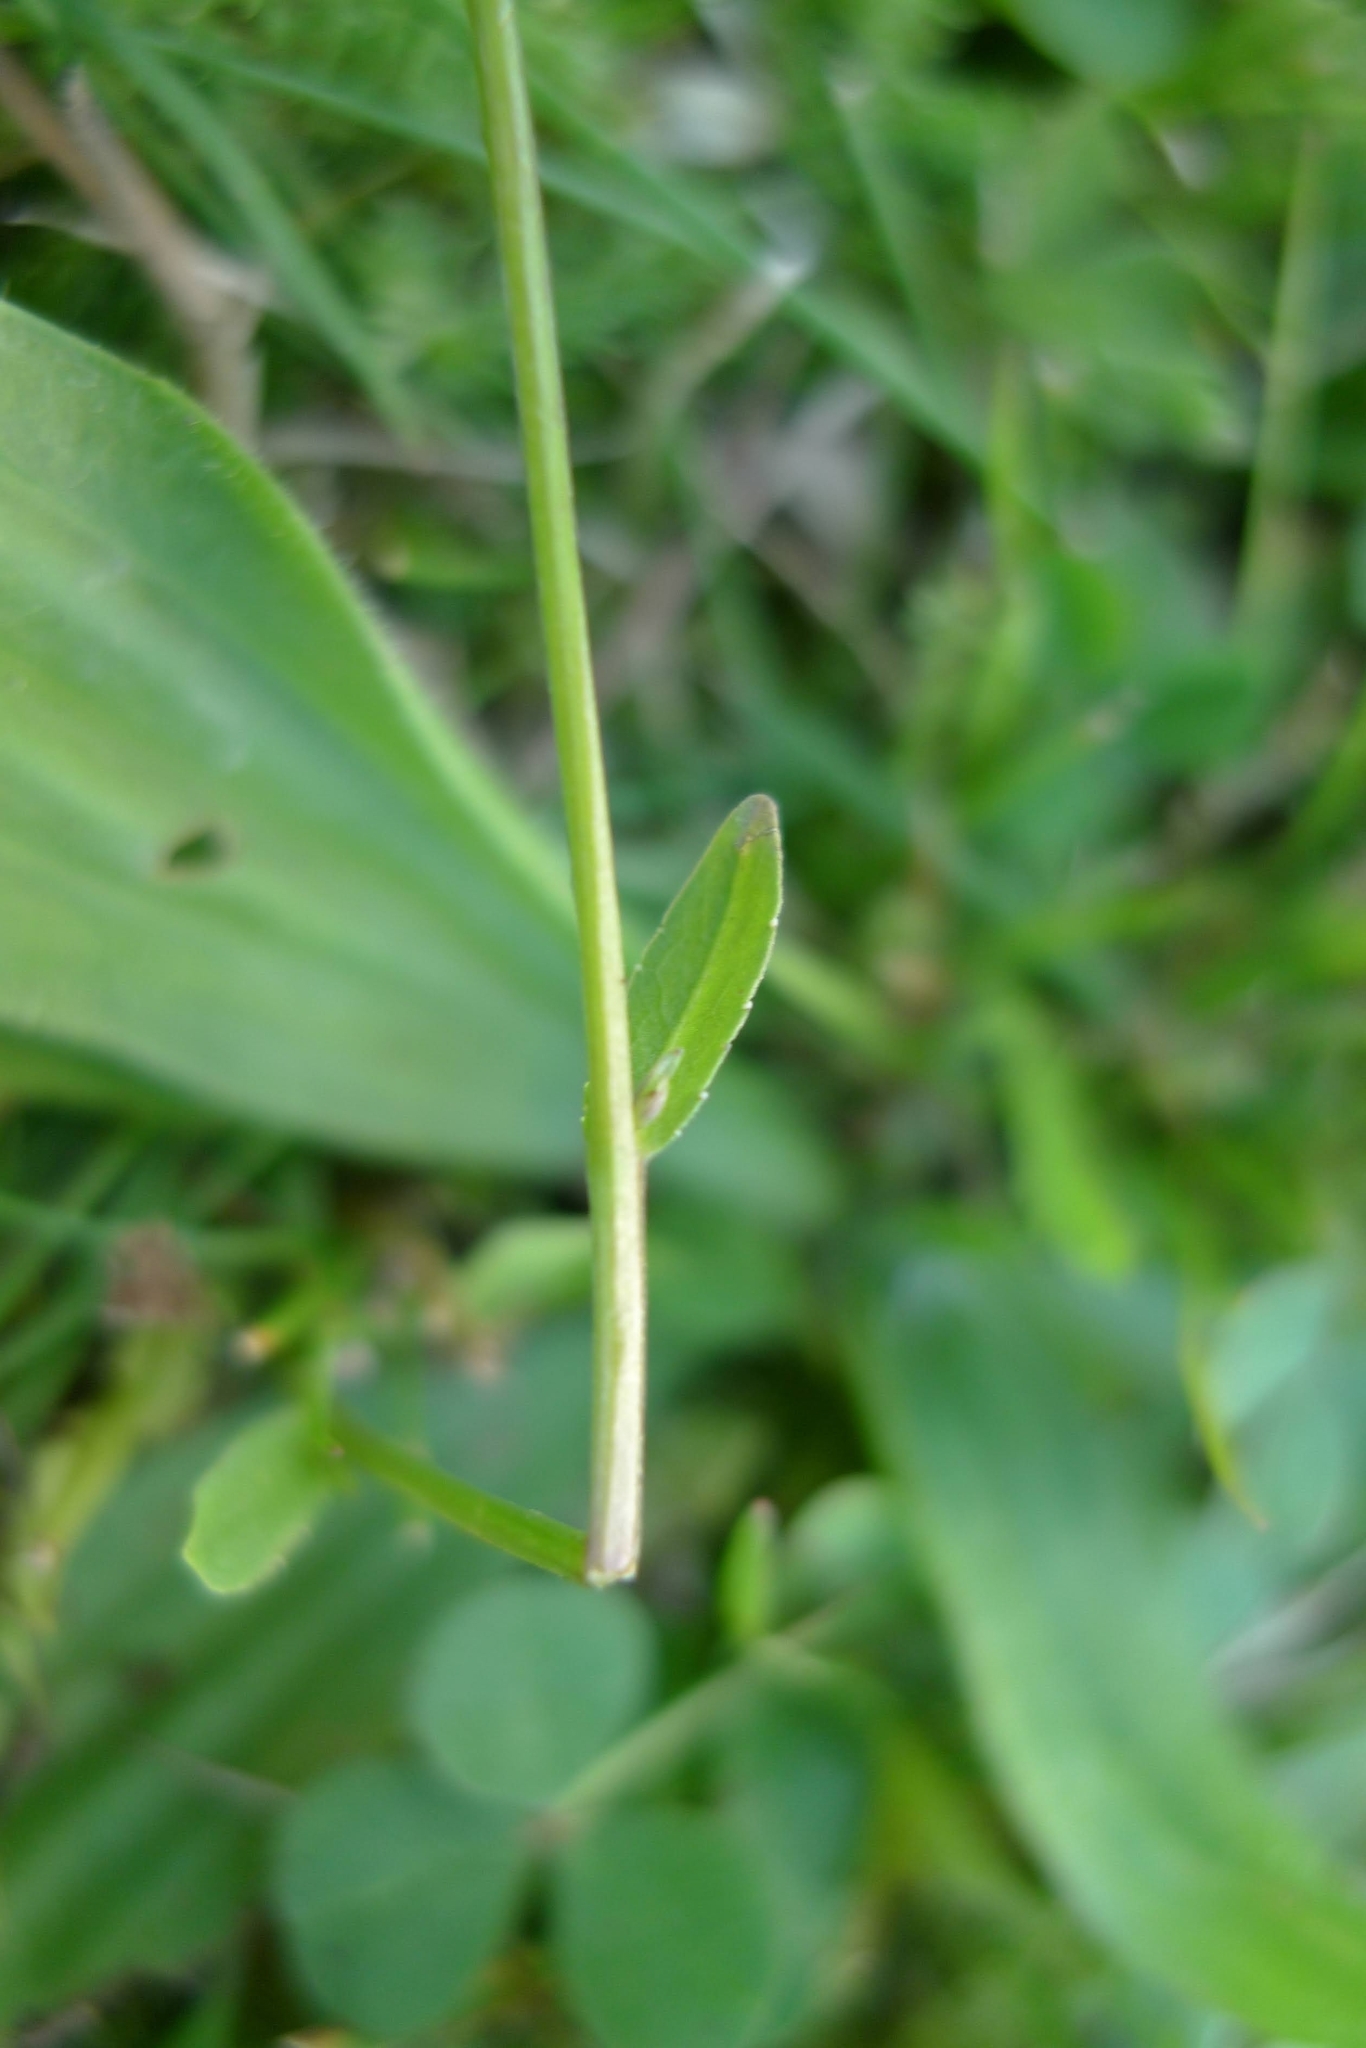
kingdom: Plantae
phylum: Tracheophyta
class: Magnoliopsida
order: Asterales
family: Campanulaceae
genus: Campanula
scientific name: Campanula patula
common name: Spreading bellflower
